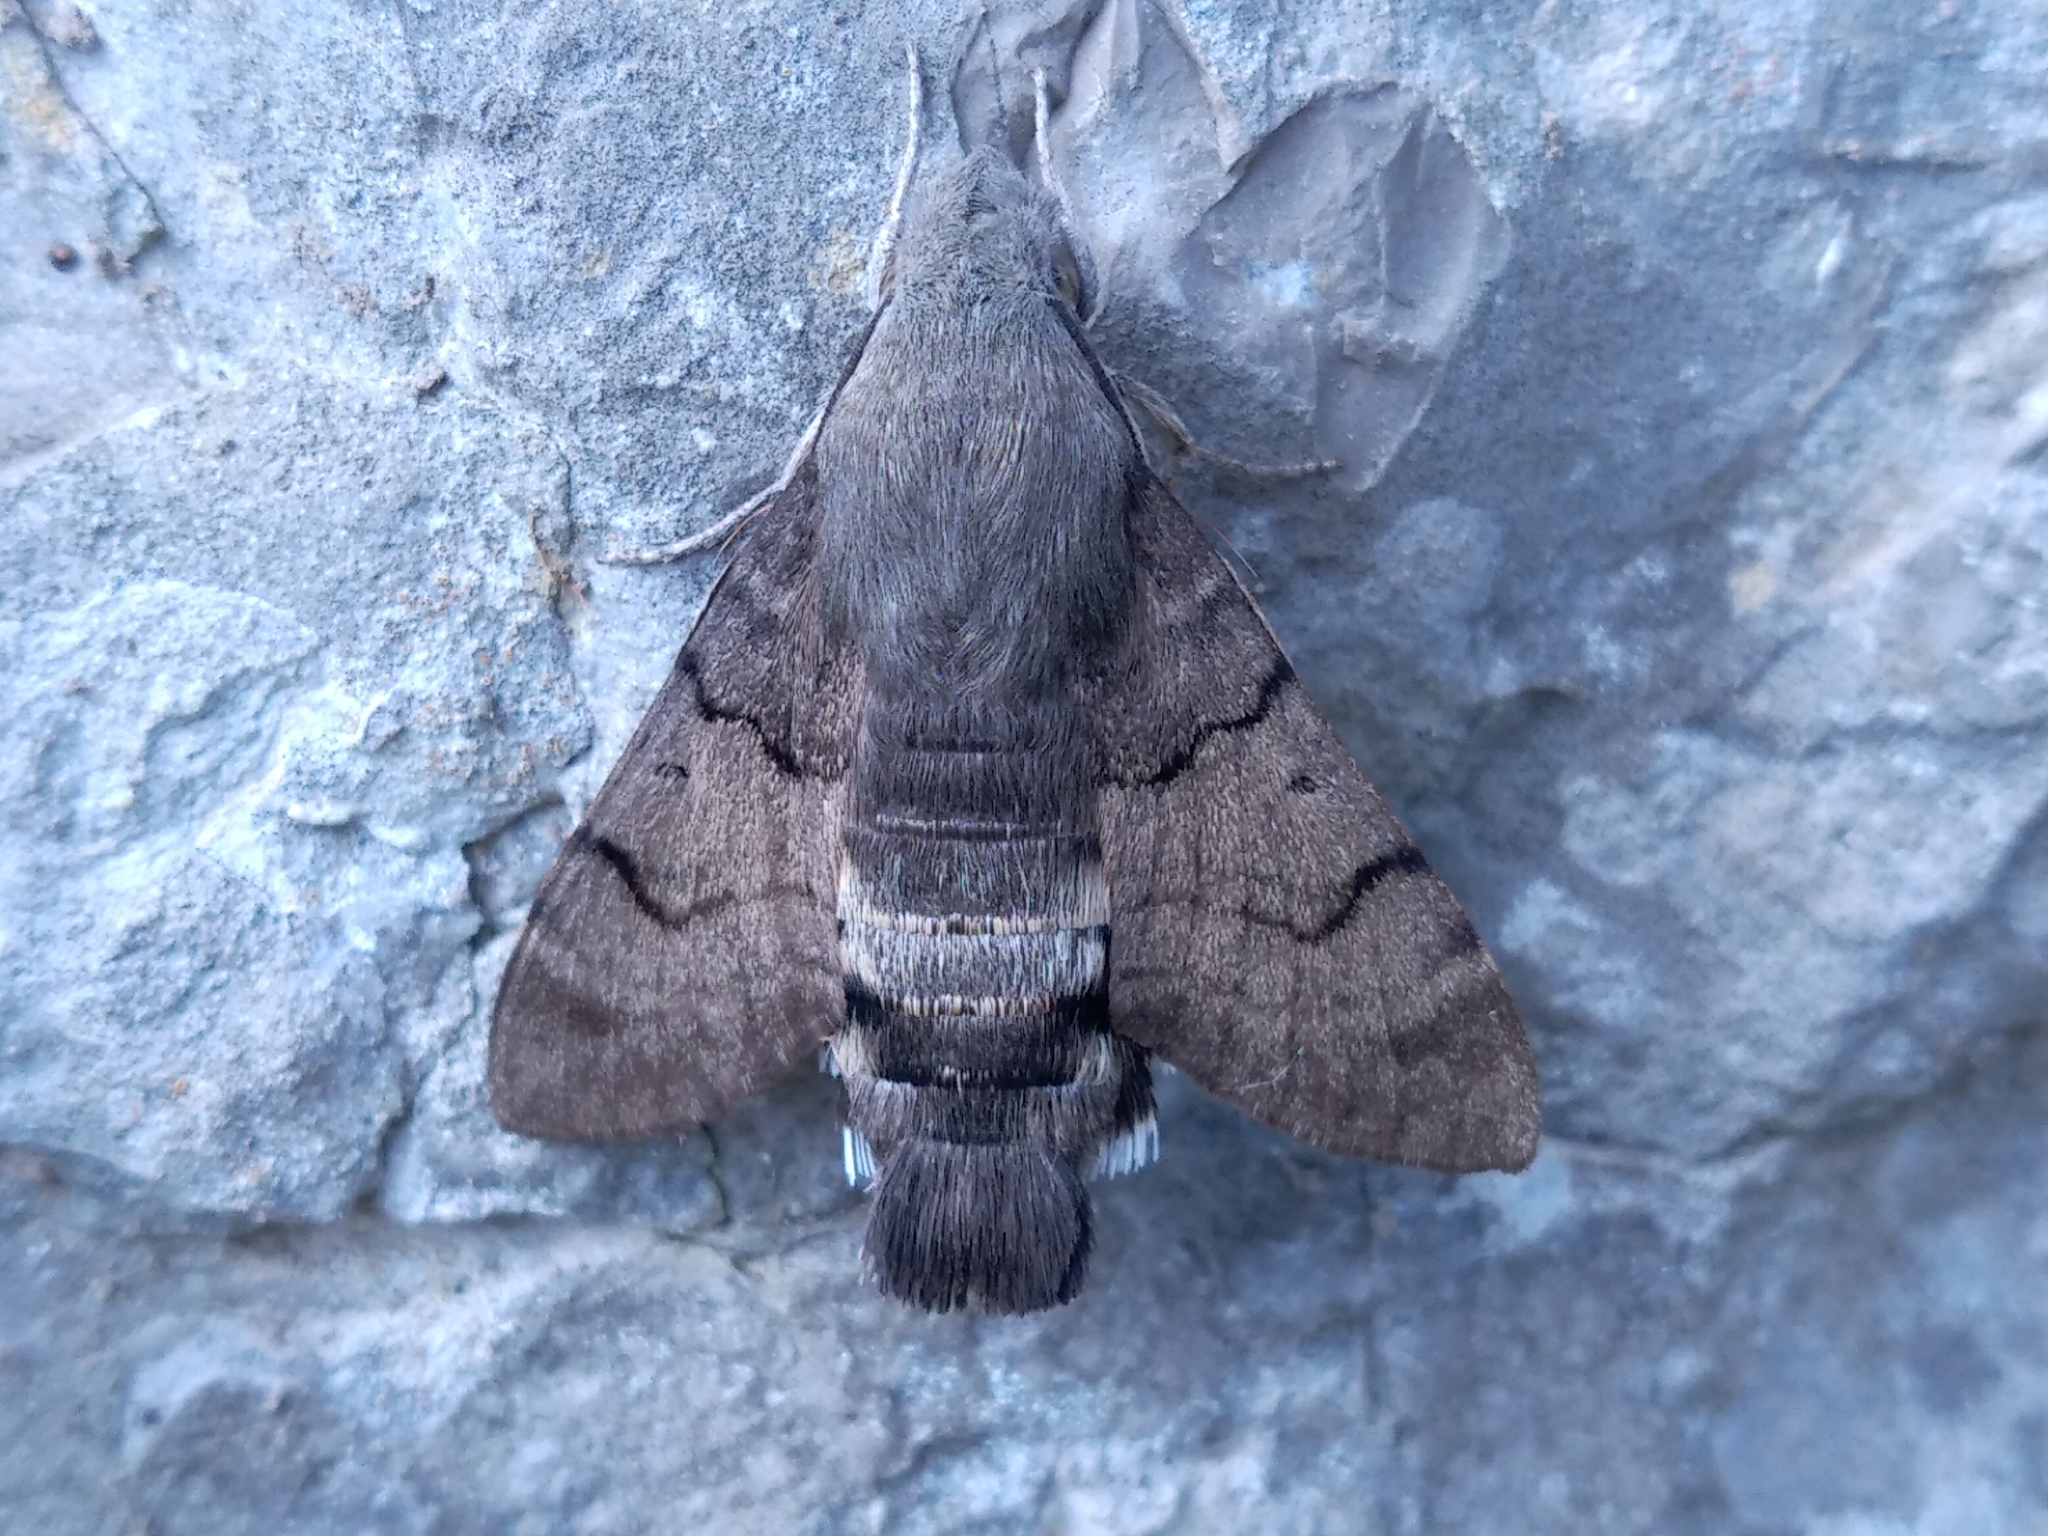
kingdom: Animalia
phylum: Arthropoda
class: Insecta
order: Lepidoptera
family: Sphingidae
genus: Macroglossum
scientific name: Macroglossum stellatarum
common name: Humming-bird hawk-moth
